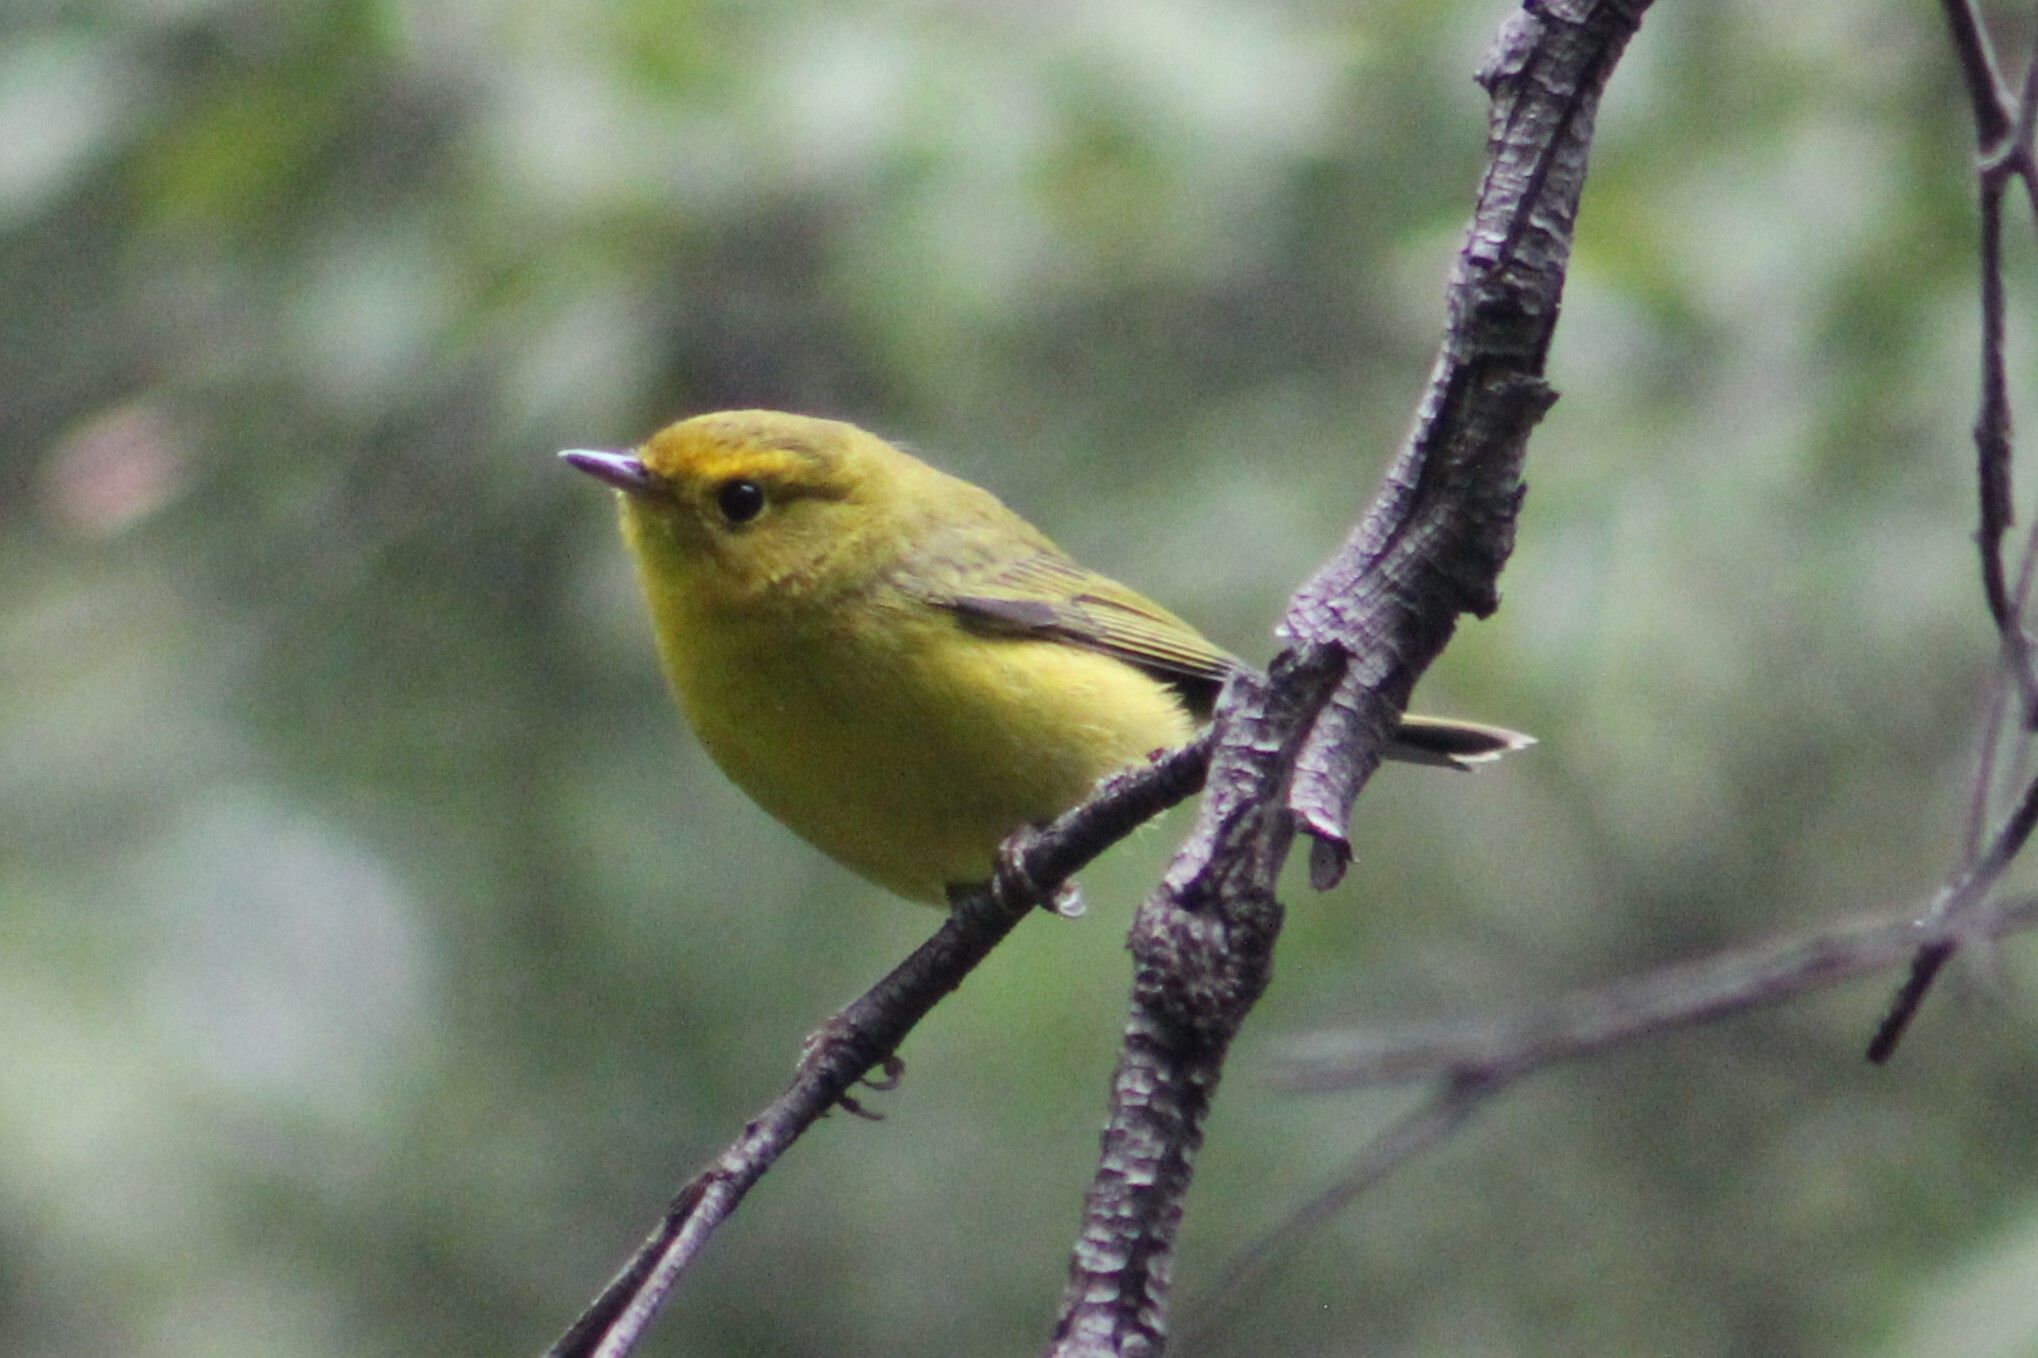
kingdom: Animalia
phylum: Chordata
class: Aves
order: Passeriformes
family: Parulidae
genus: Cardellina
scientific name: Cardellina pusilla
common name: Wilson's warbler
